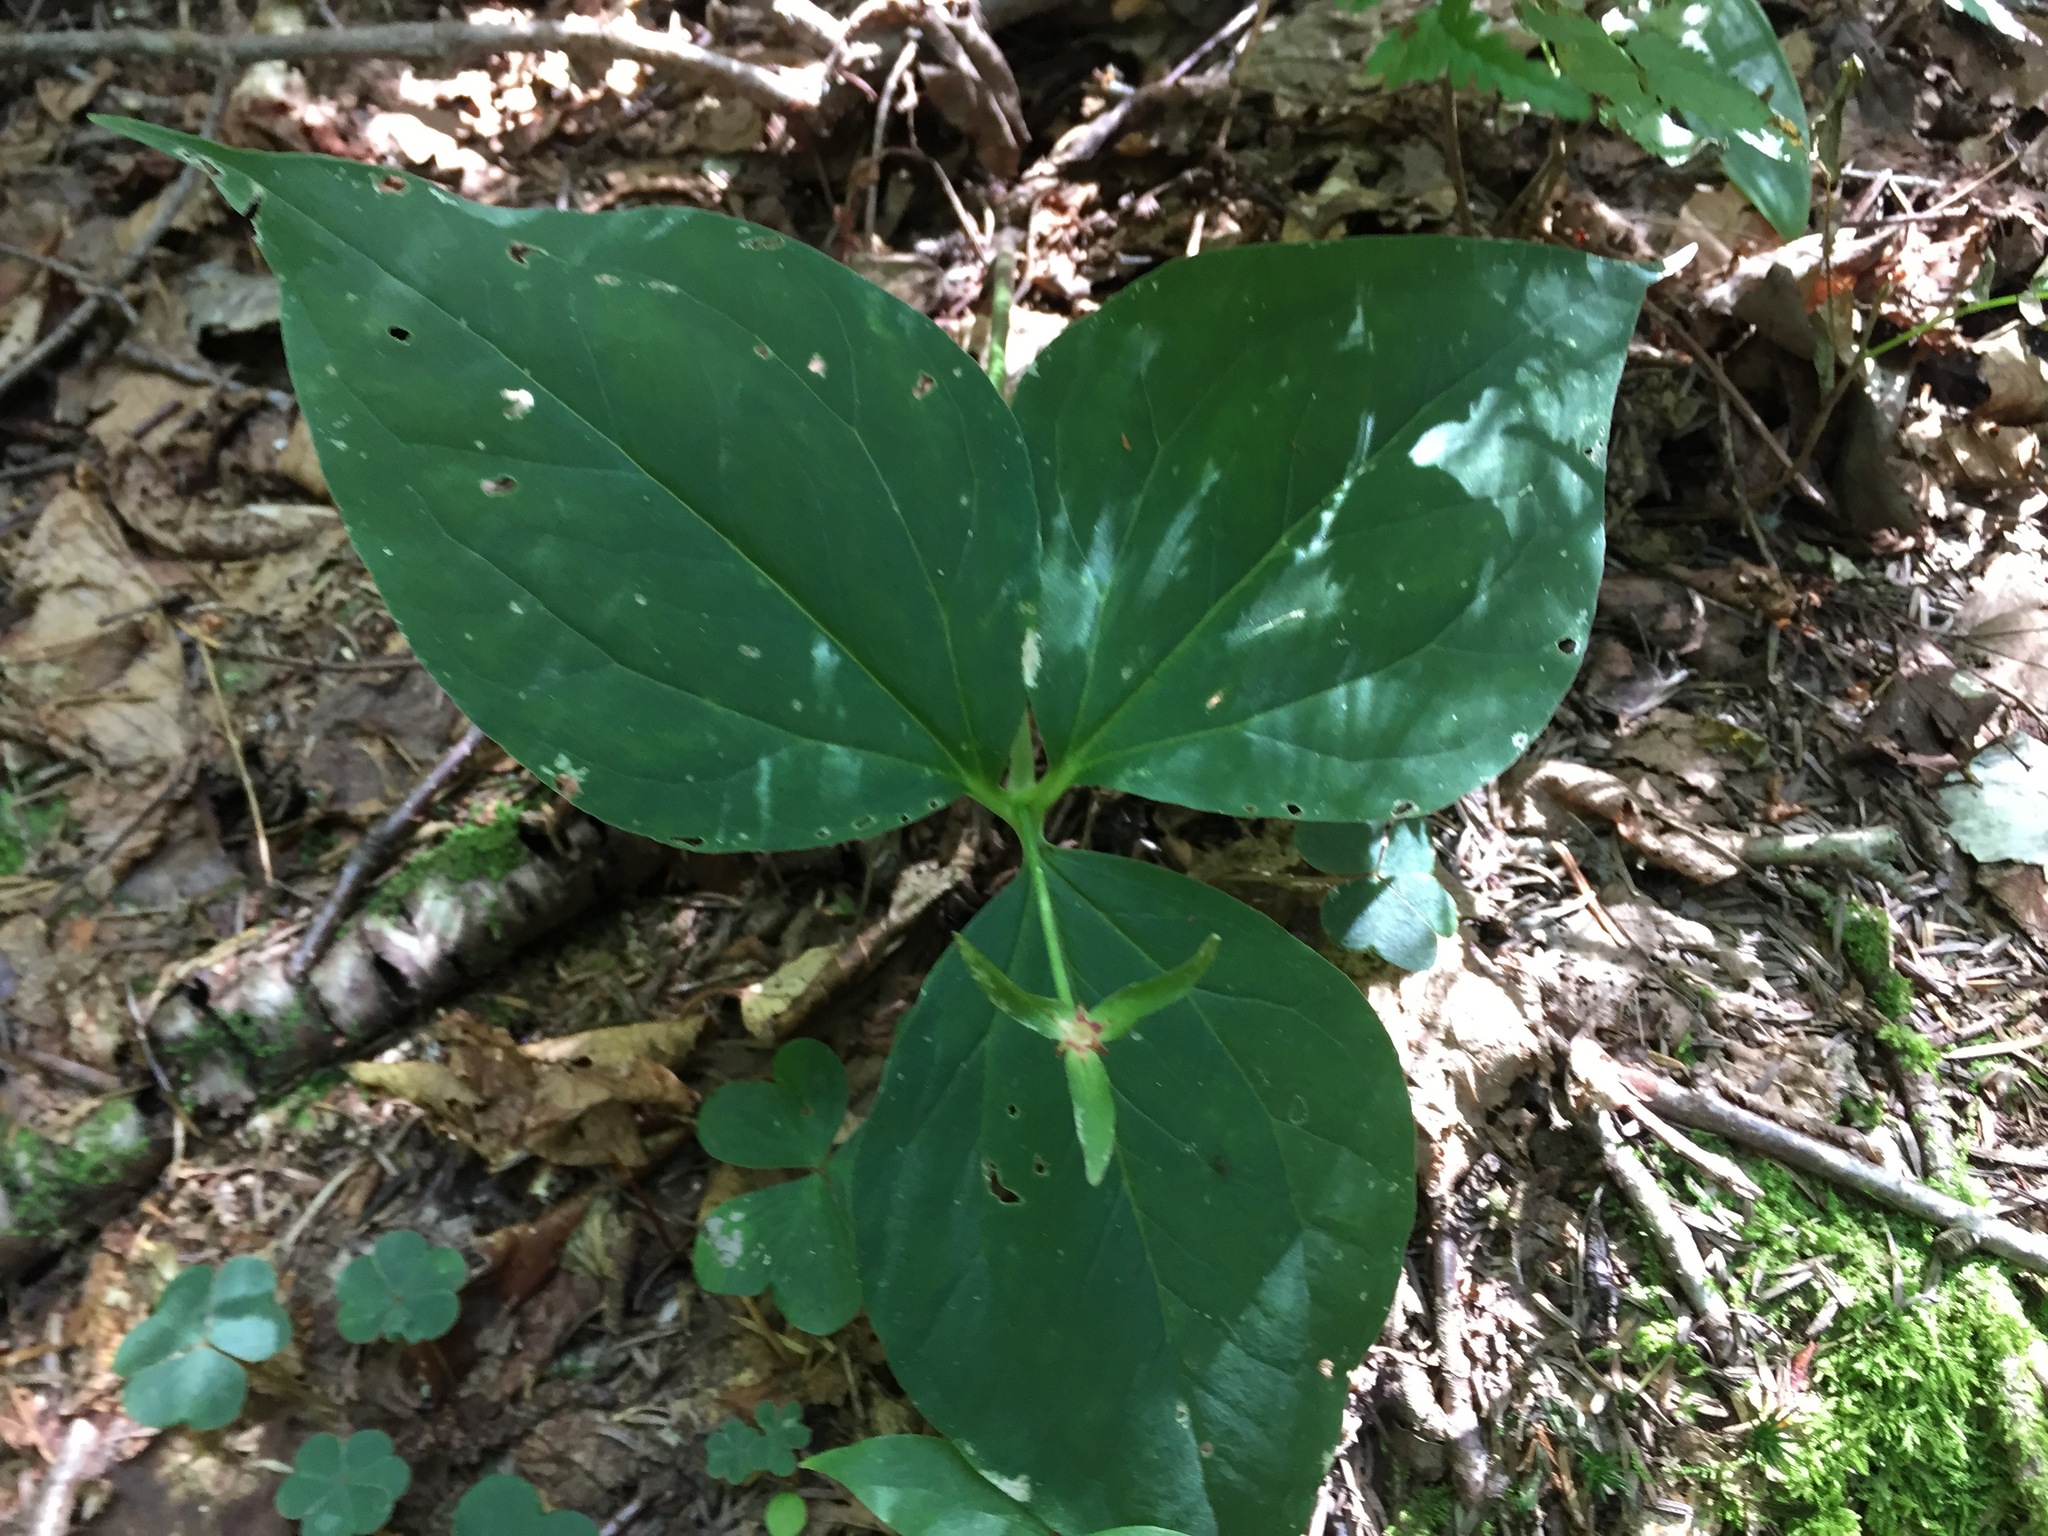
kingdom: Plantae
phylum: Tracheophyta
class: Liliopsida
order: Liliales
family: Melanthiaceae
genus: Trillium
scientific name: Trillium undulatum
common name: Paint trillium
